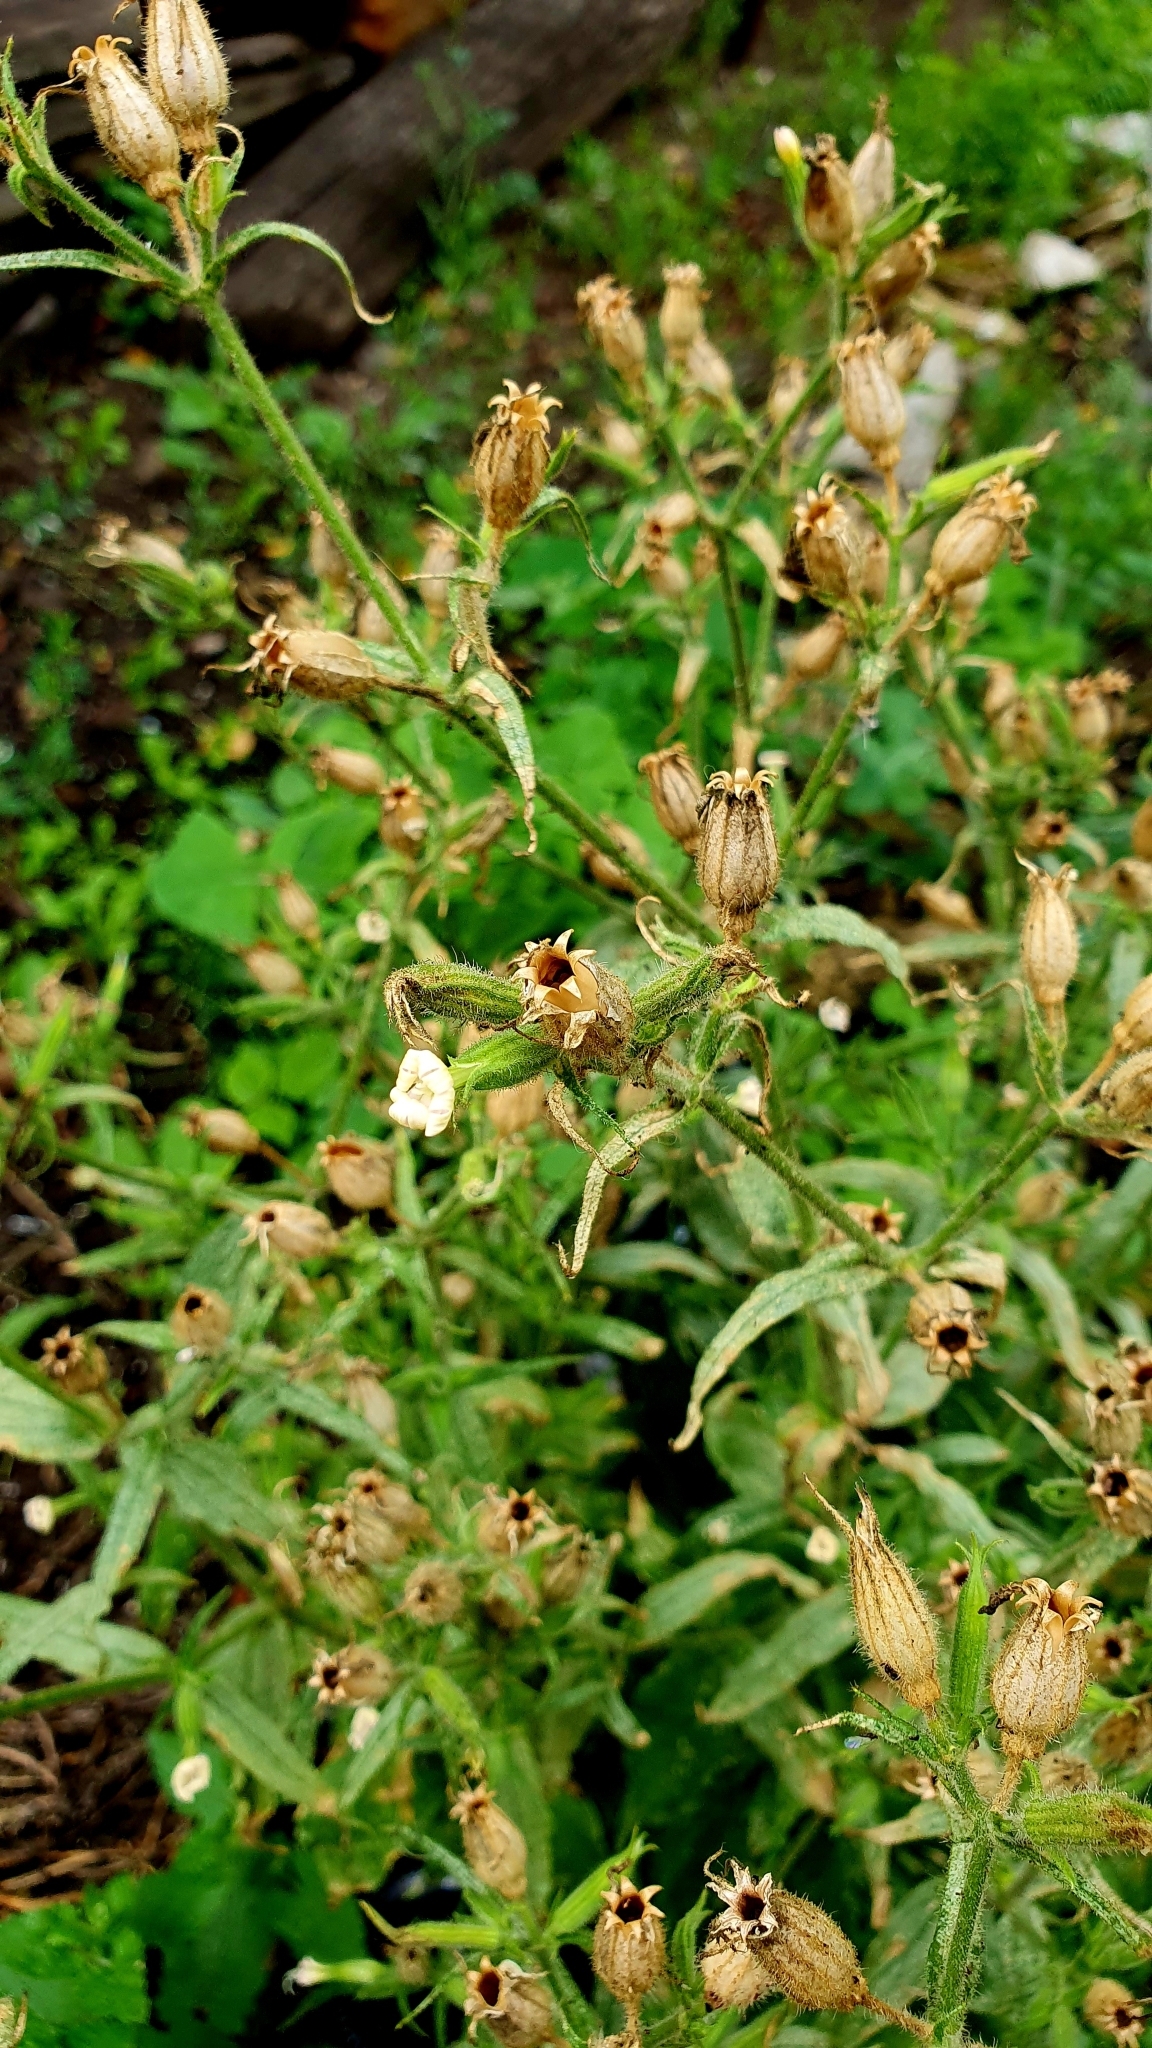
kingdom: Plantae
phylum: Tracheophyta
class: Magnoliopsida
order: Caryophyllales
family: Caryophyllaceae
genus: Silene
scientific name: Silene noctiflora
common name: Night-flowering catchfly
